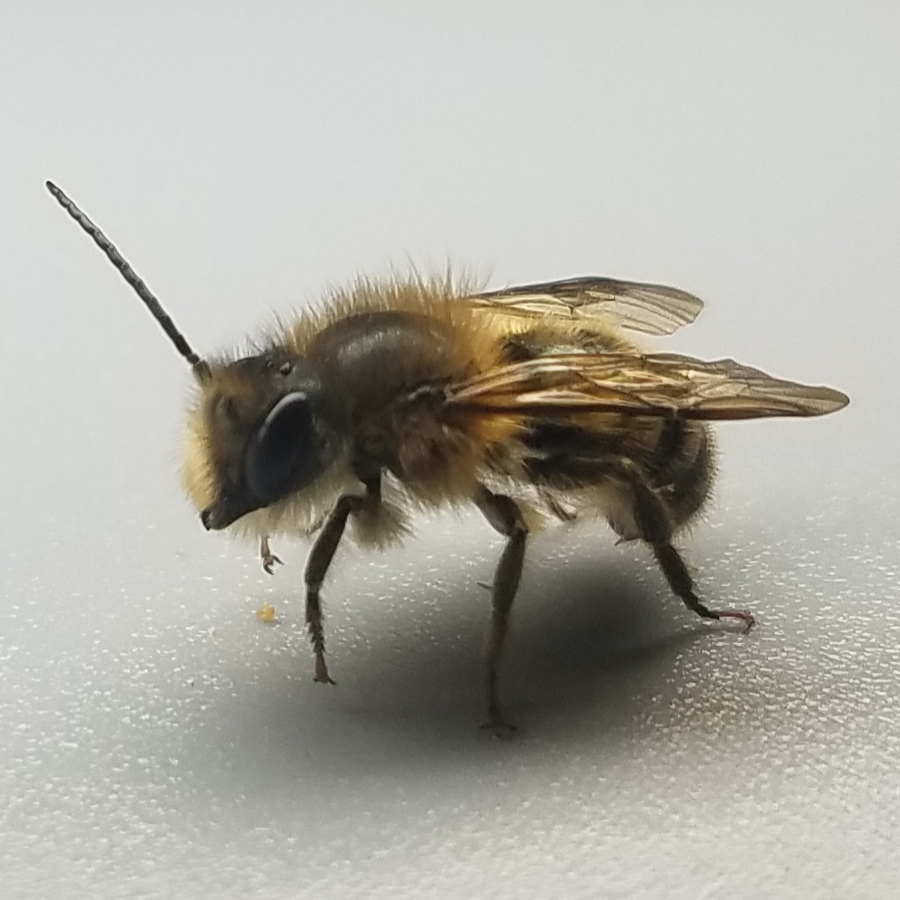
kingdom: Animalia
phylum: Arthropoda
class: Insecta
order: Hymenoptera
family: Megachilidae
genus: Osmia
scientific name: Osmia taurus
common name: Taurus mason bee
